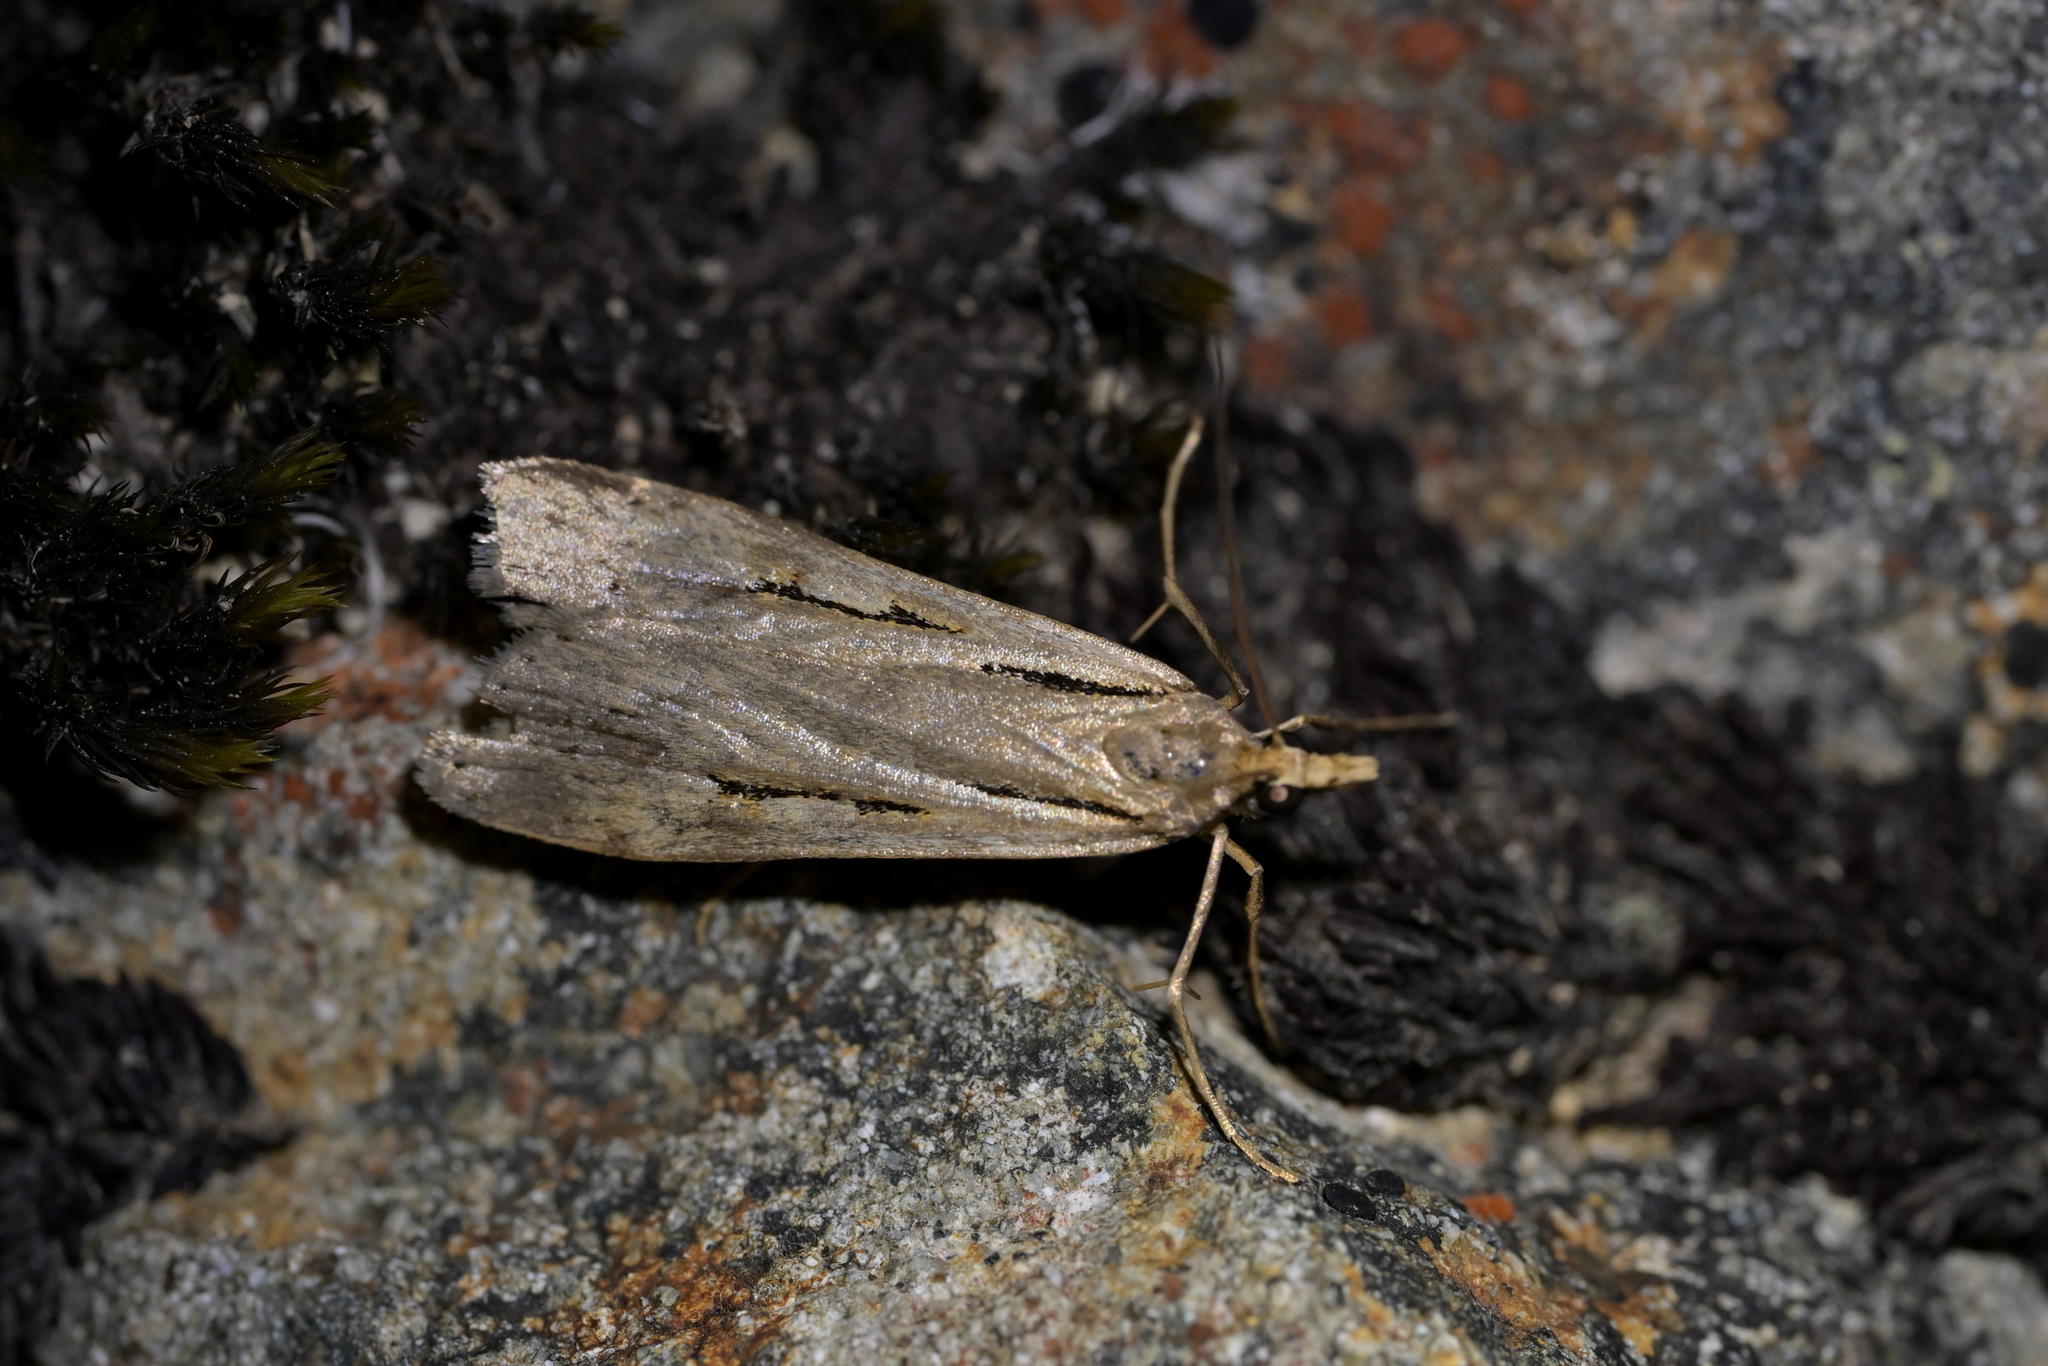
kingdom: Animalia
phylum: Arthropoda
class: Insecta
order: Lepidoptera
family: Crambidae
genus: Scoparia
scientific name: Scoparia rotuellus
